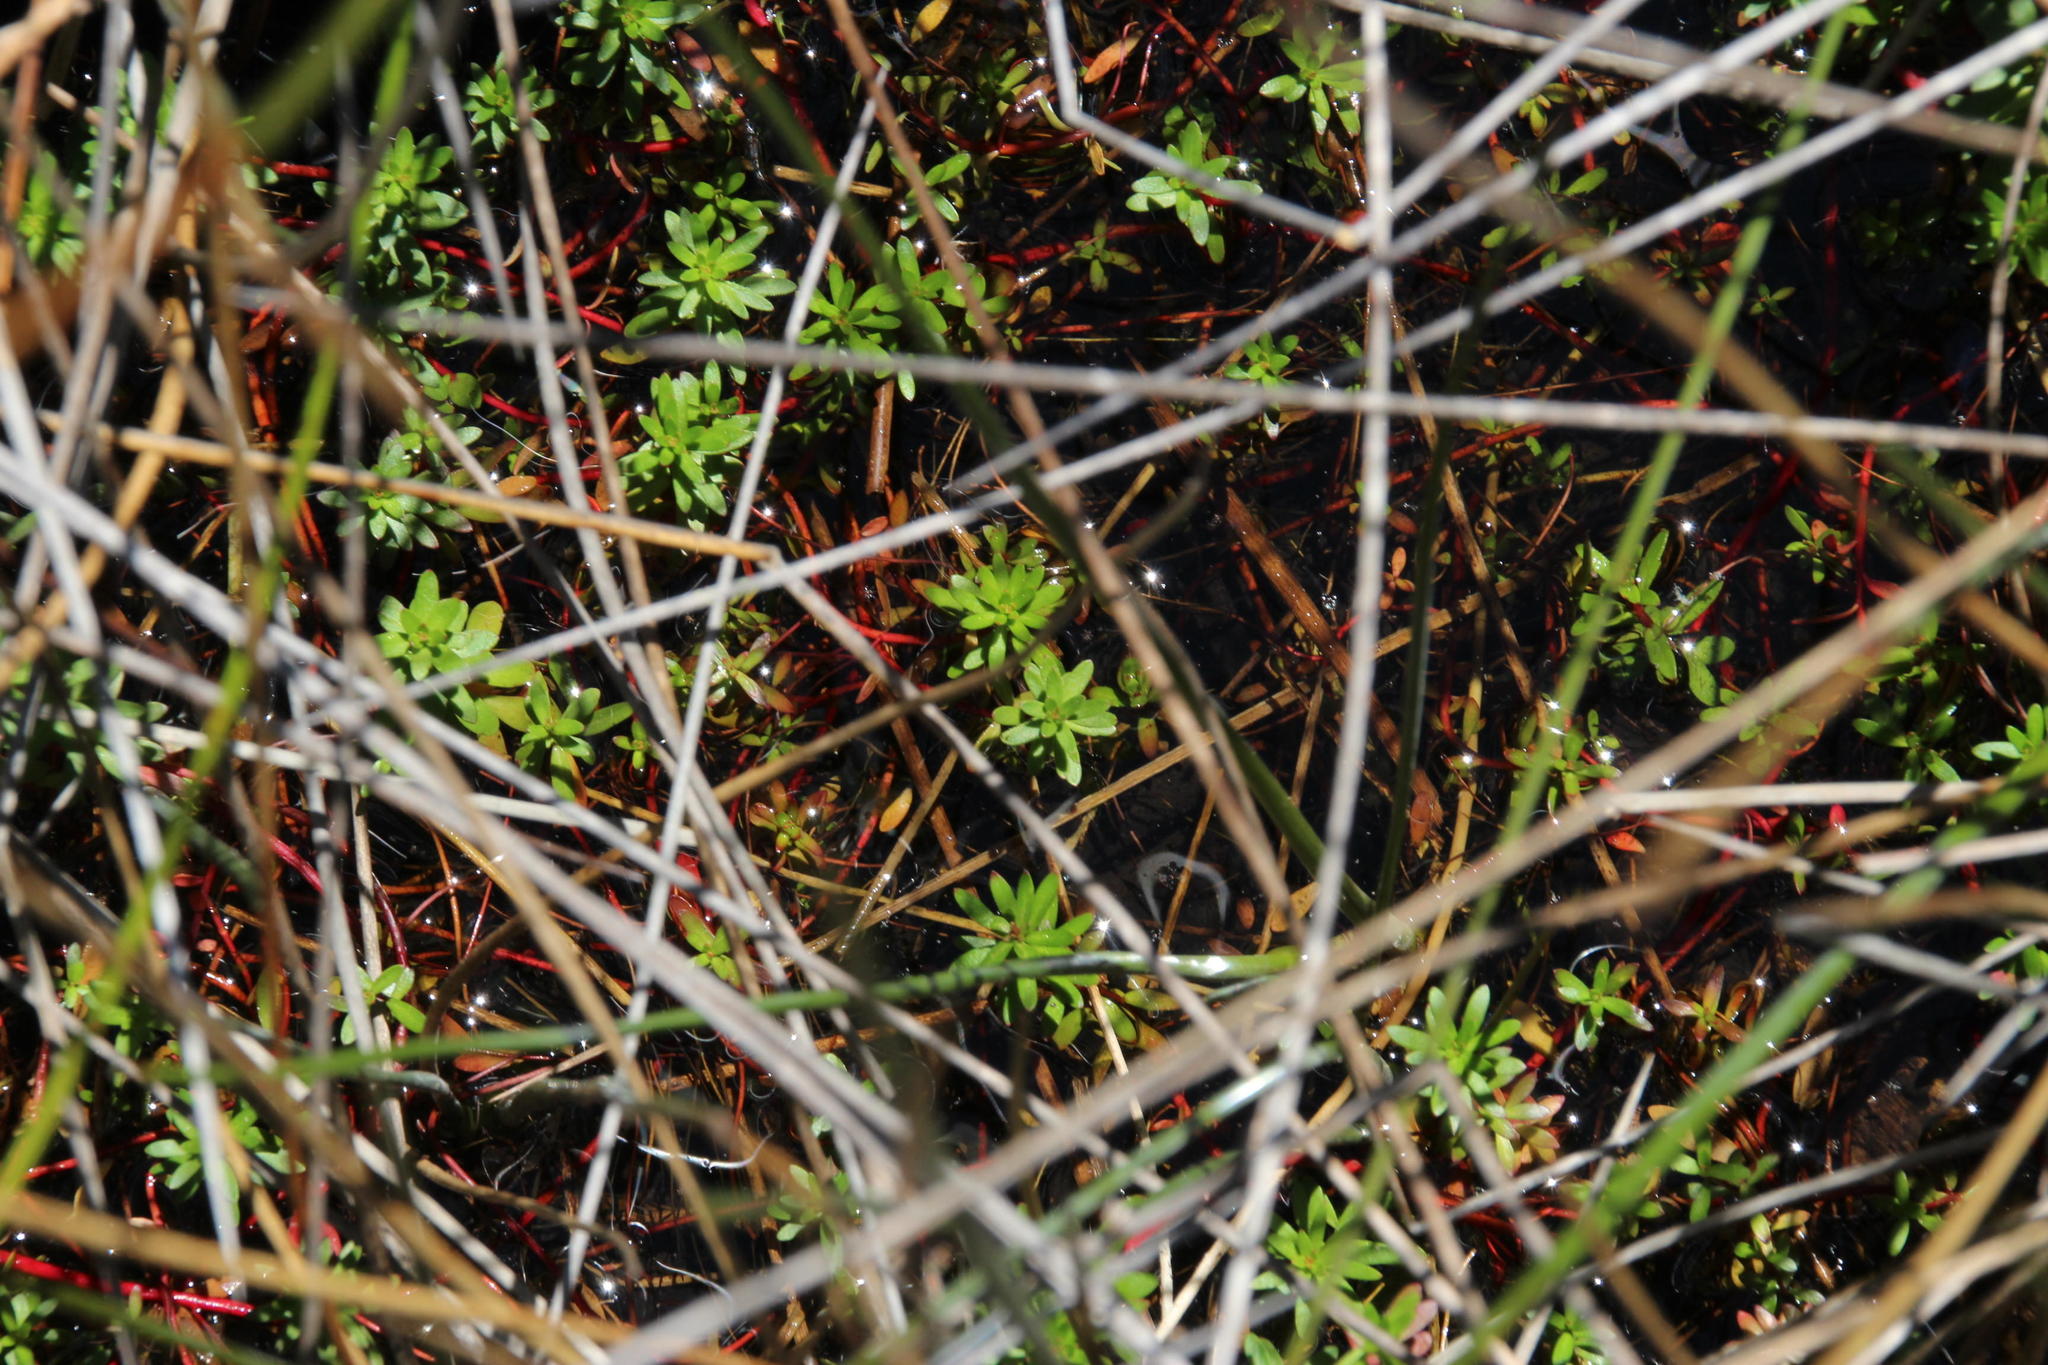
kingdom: Plantae
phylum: Tracheophyta
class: Magnoliopsida
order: Saxifragales
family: Haloragaceae
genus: Laurembergia
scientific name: Laurembergia repens
